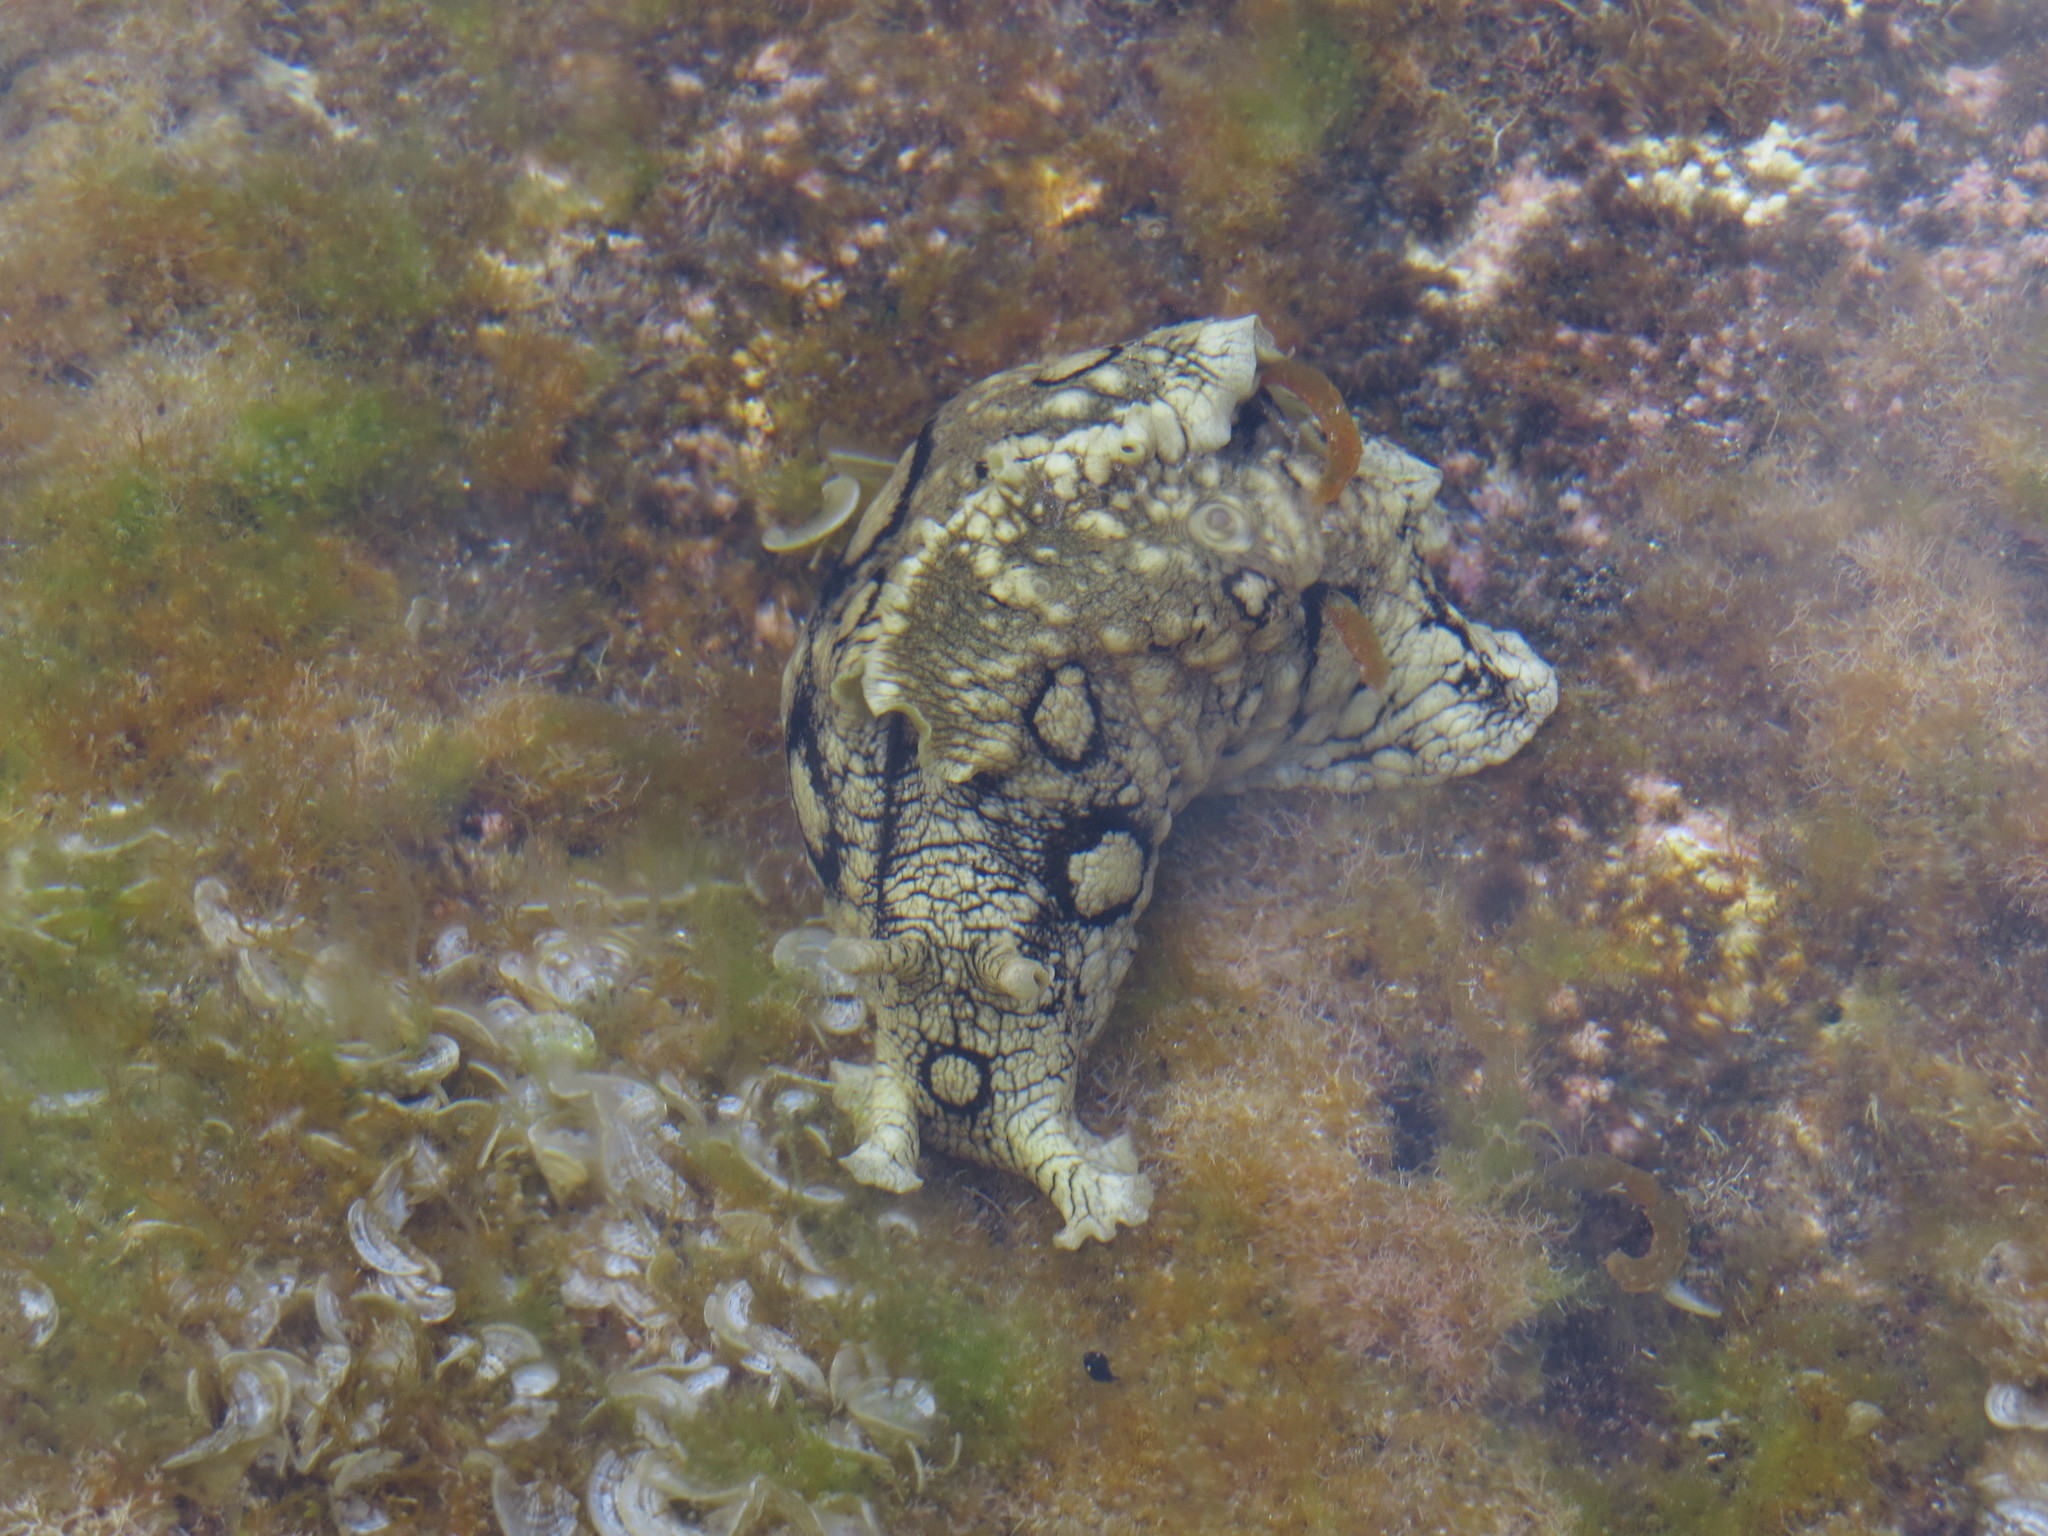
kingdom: Animalia
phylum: Mollusca
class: Gastropoda
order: Aplysiida
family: Aplysiidae
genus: Aplysia
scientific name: Aplysia dactylomela
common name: Large-spotted sea hare
